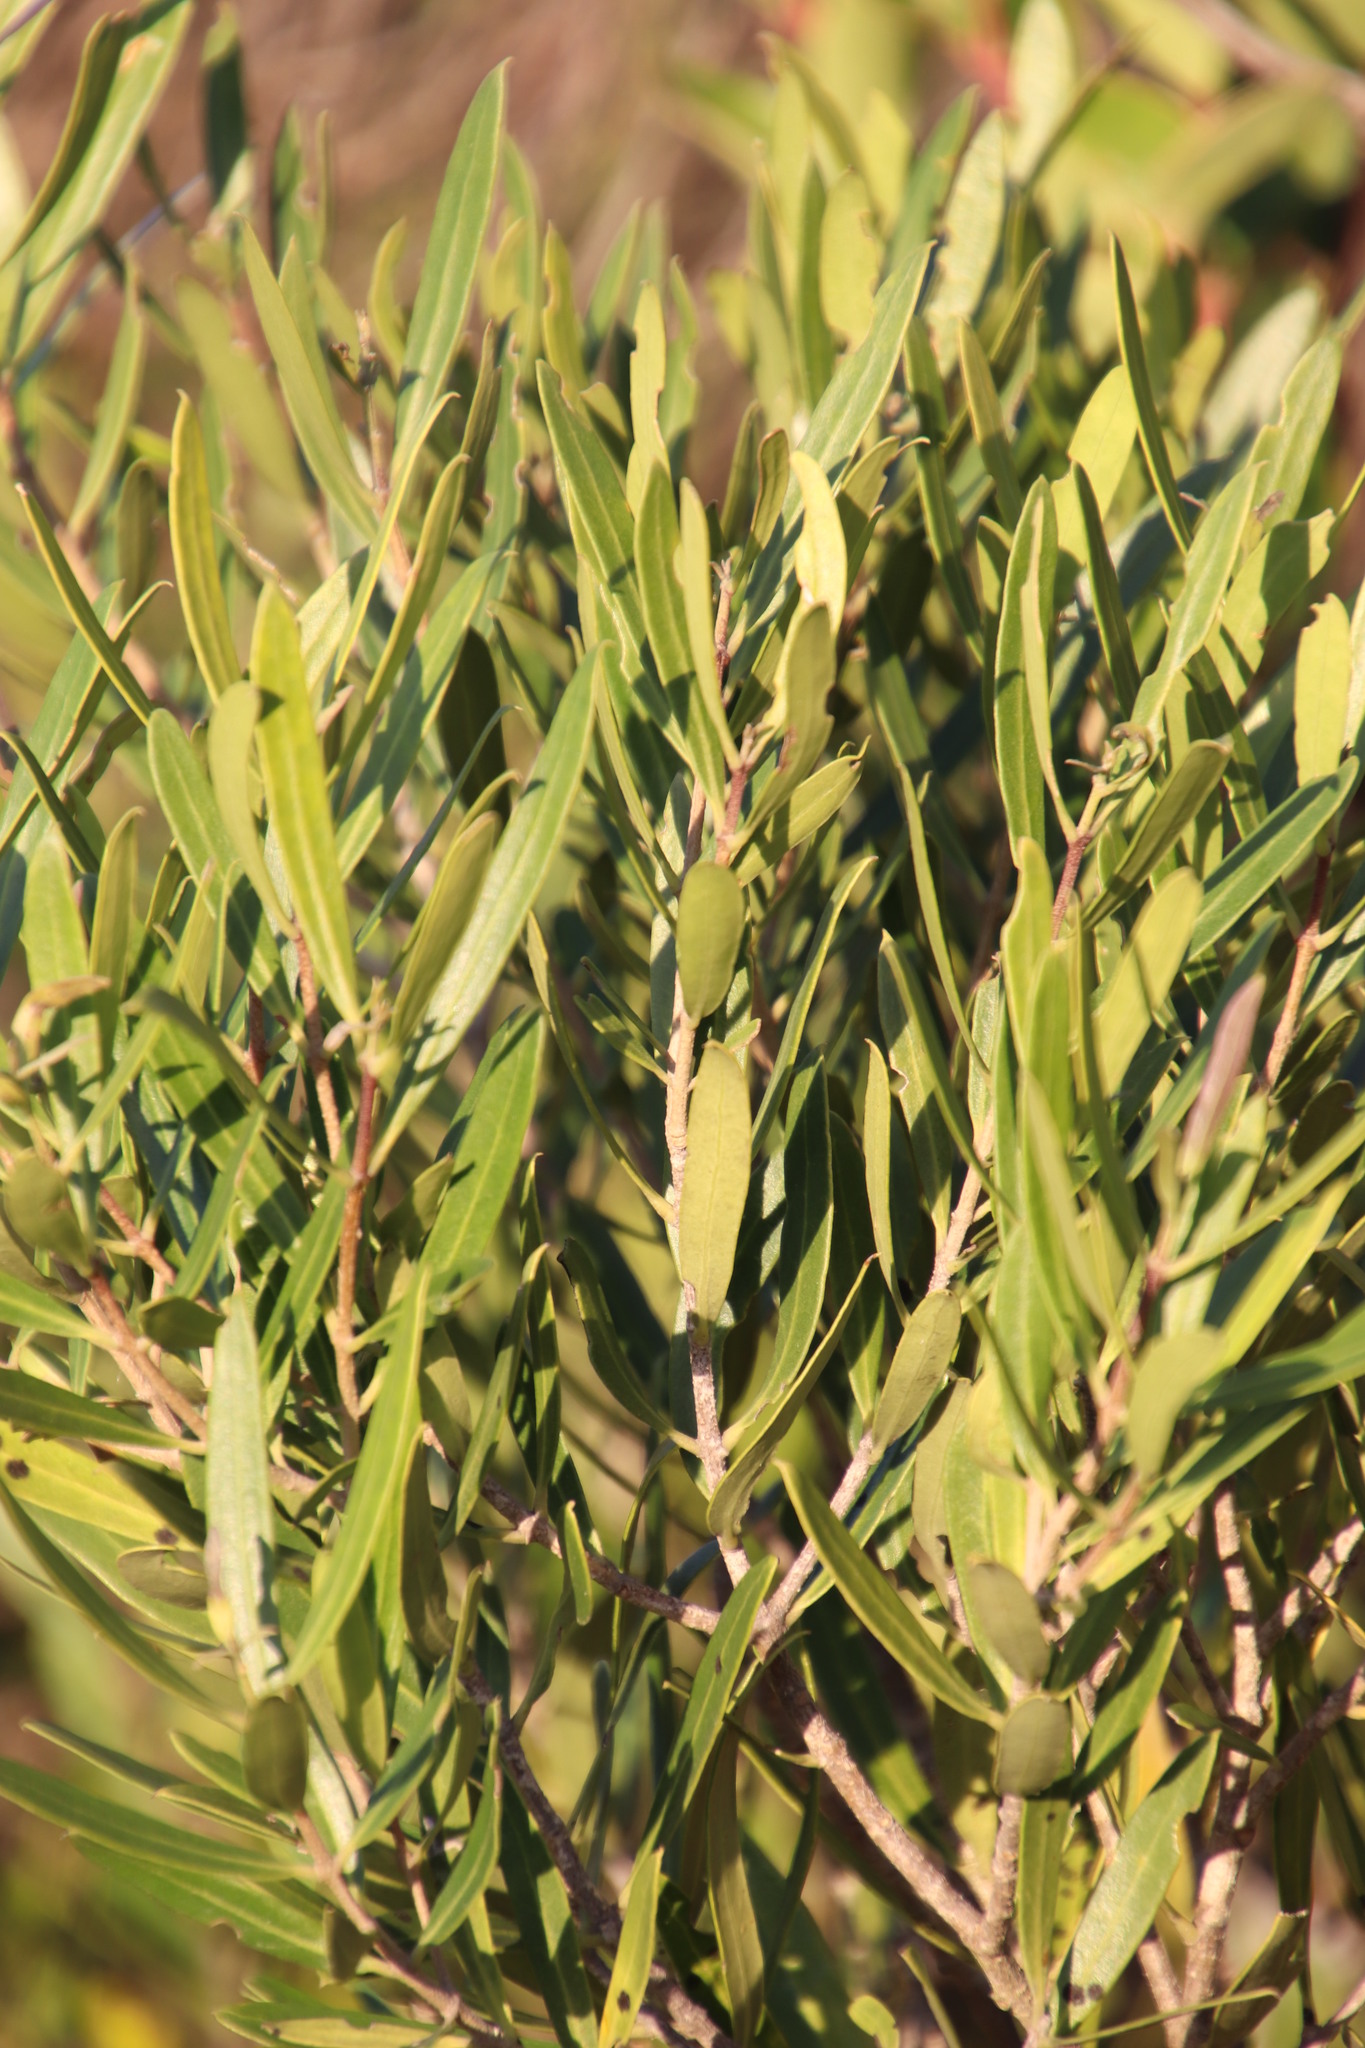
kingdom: Plantae
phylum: Tracheophyta
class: Magnoliopsida
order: Lamiales
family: Oleaceae
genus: Olea
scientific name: Olea exasperata
